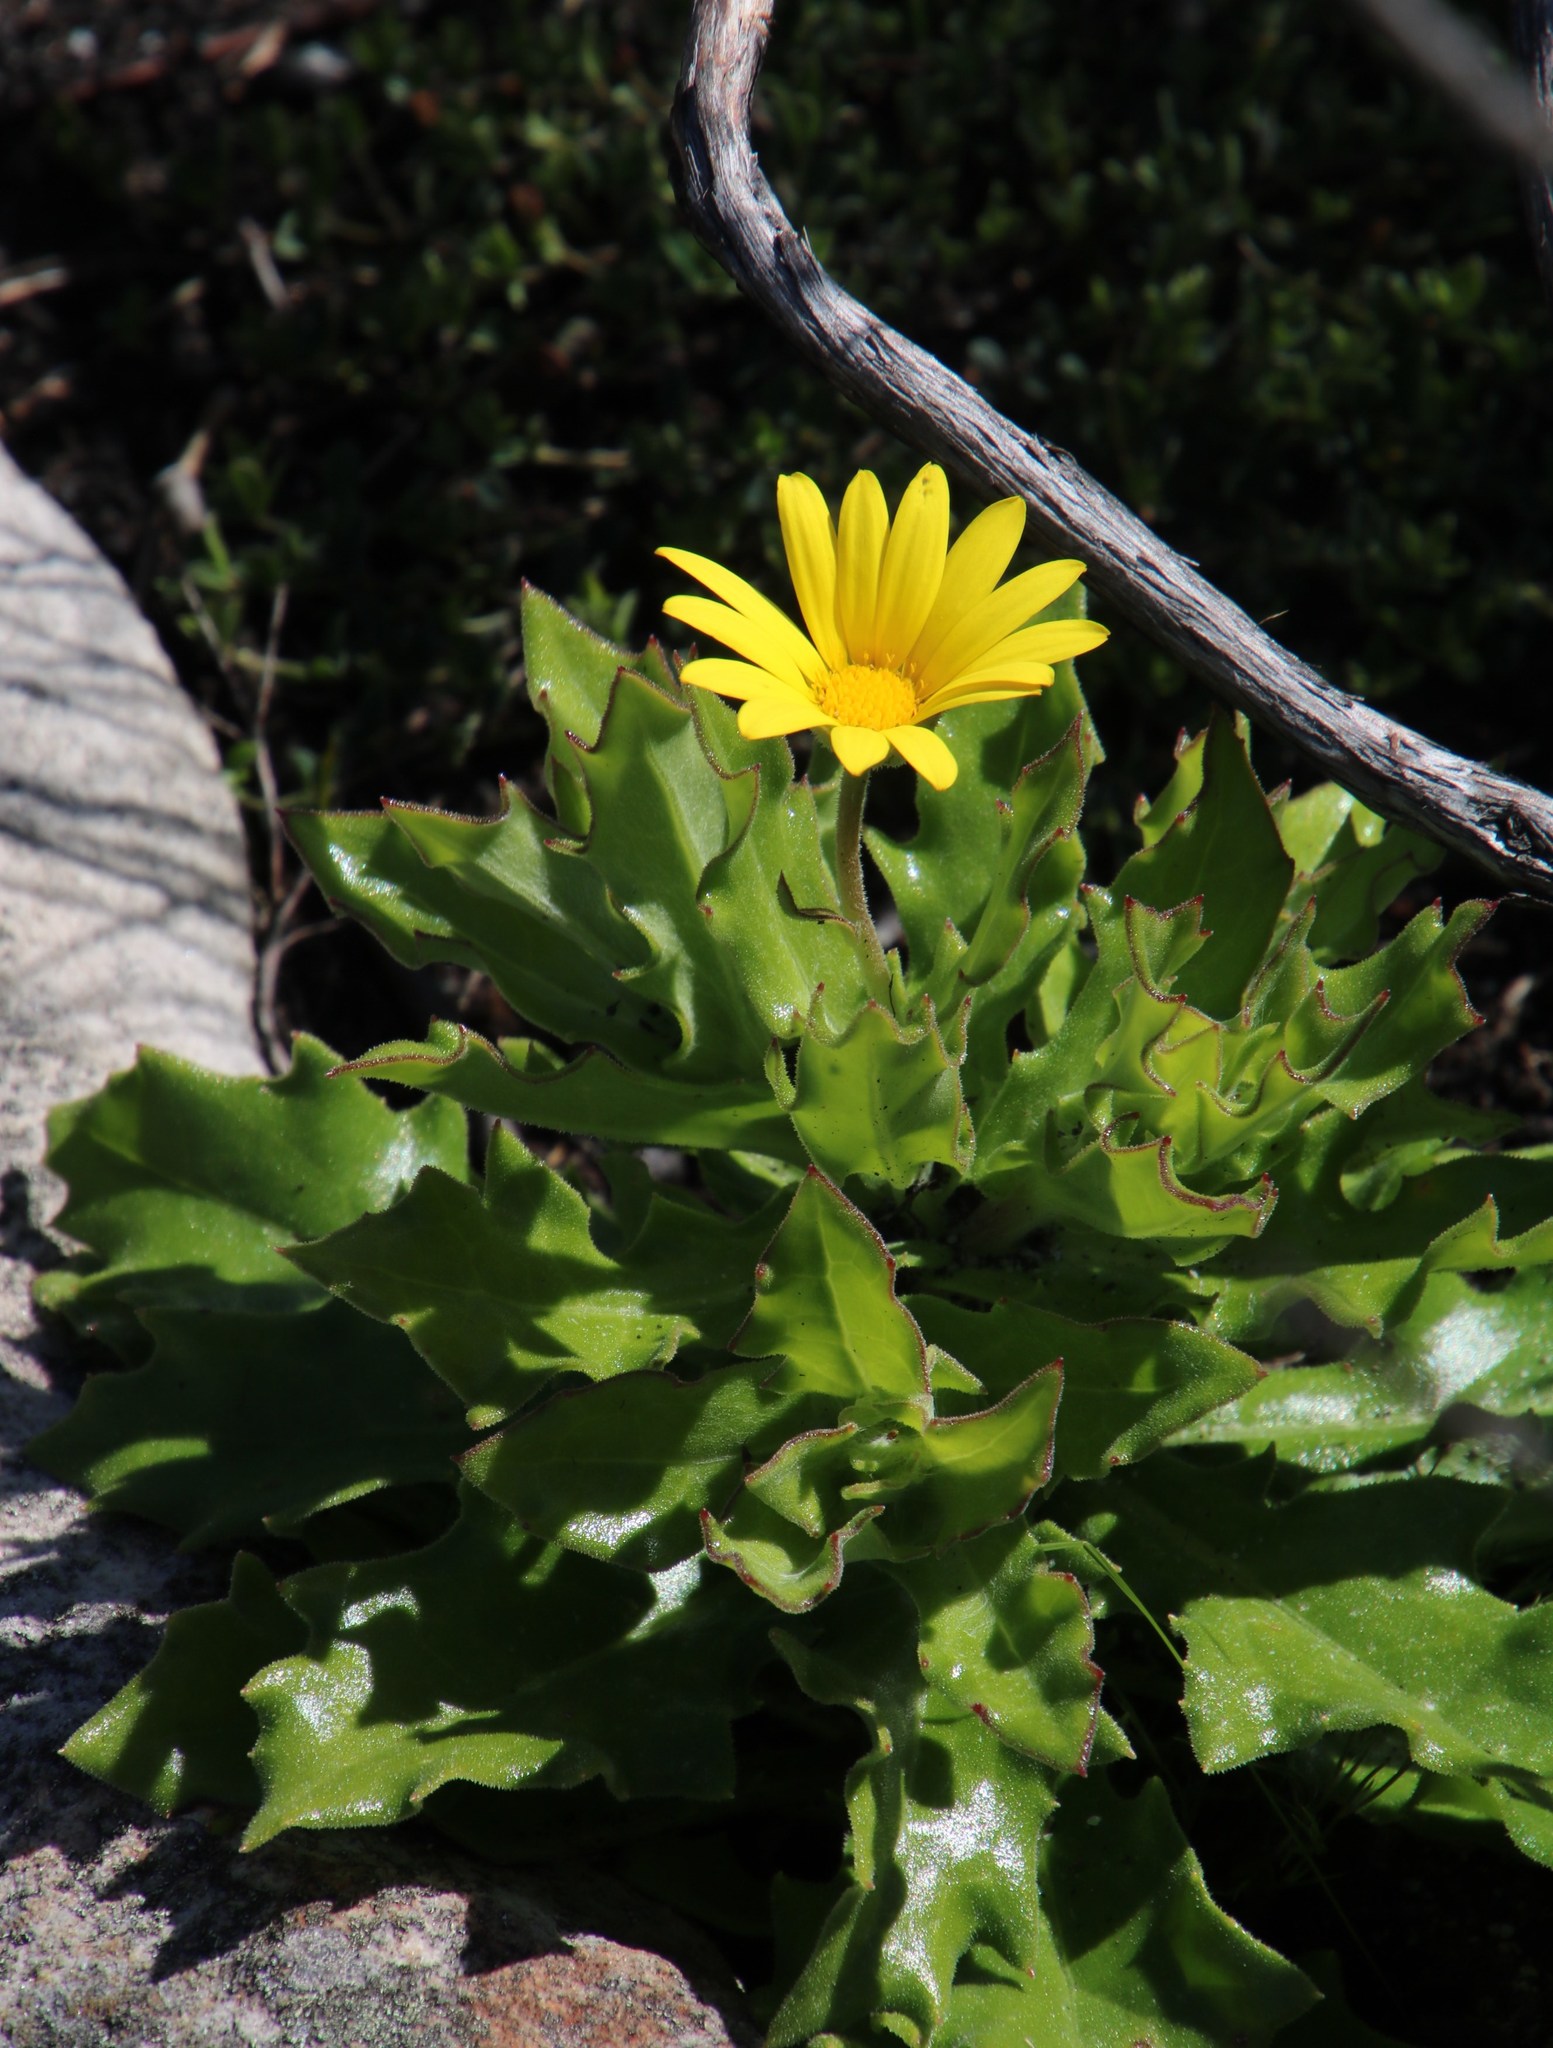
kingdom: Plantae
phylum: Tracheophyta
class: Magnoliopsida
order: Asterales
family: Asteraceae
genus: Osteospermum
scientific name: Osteospermum ilicifolium
